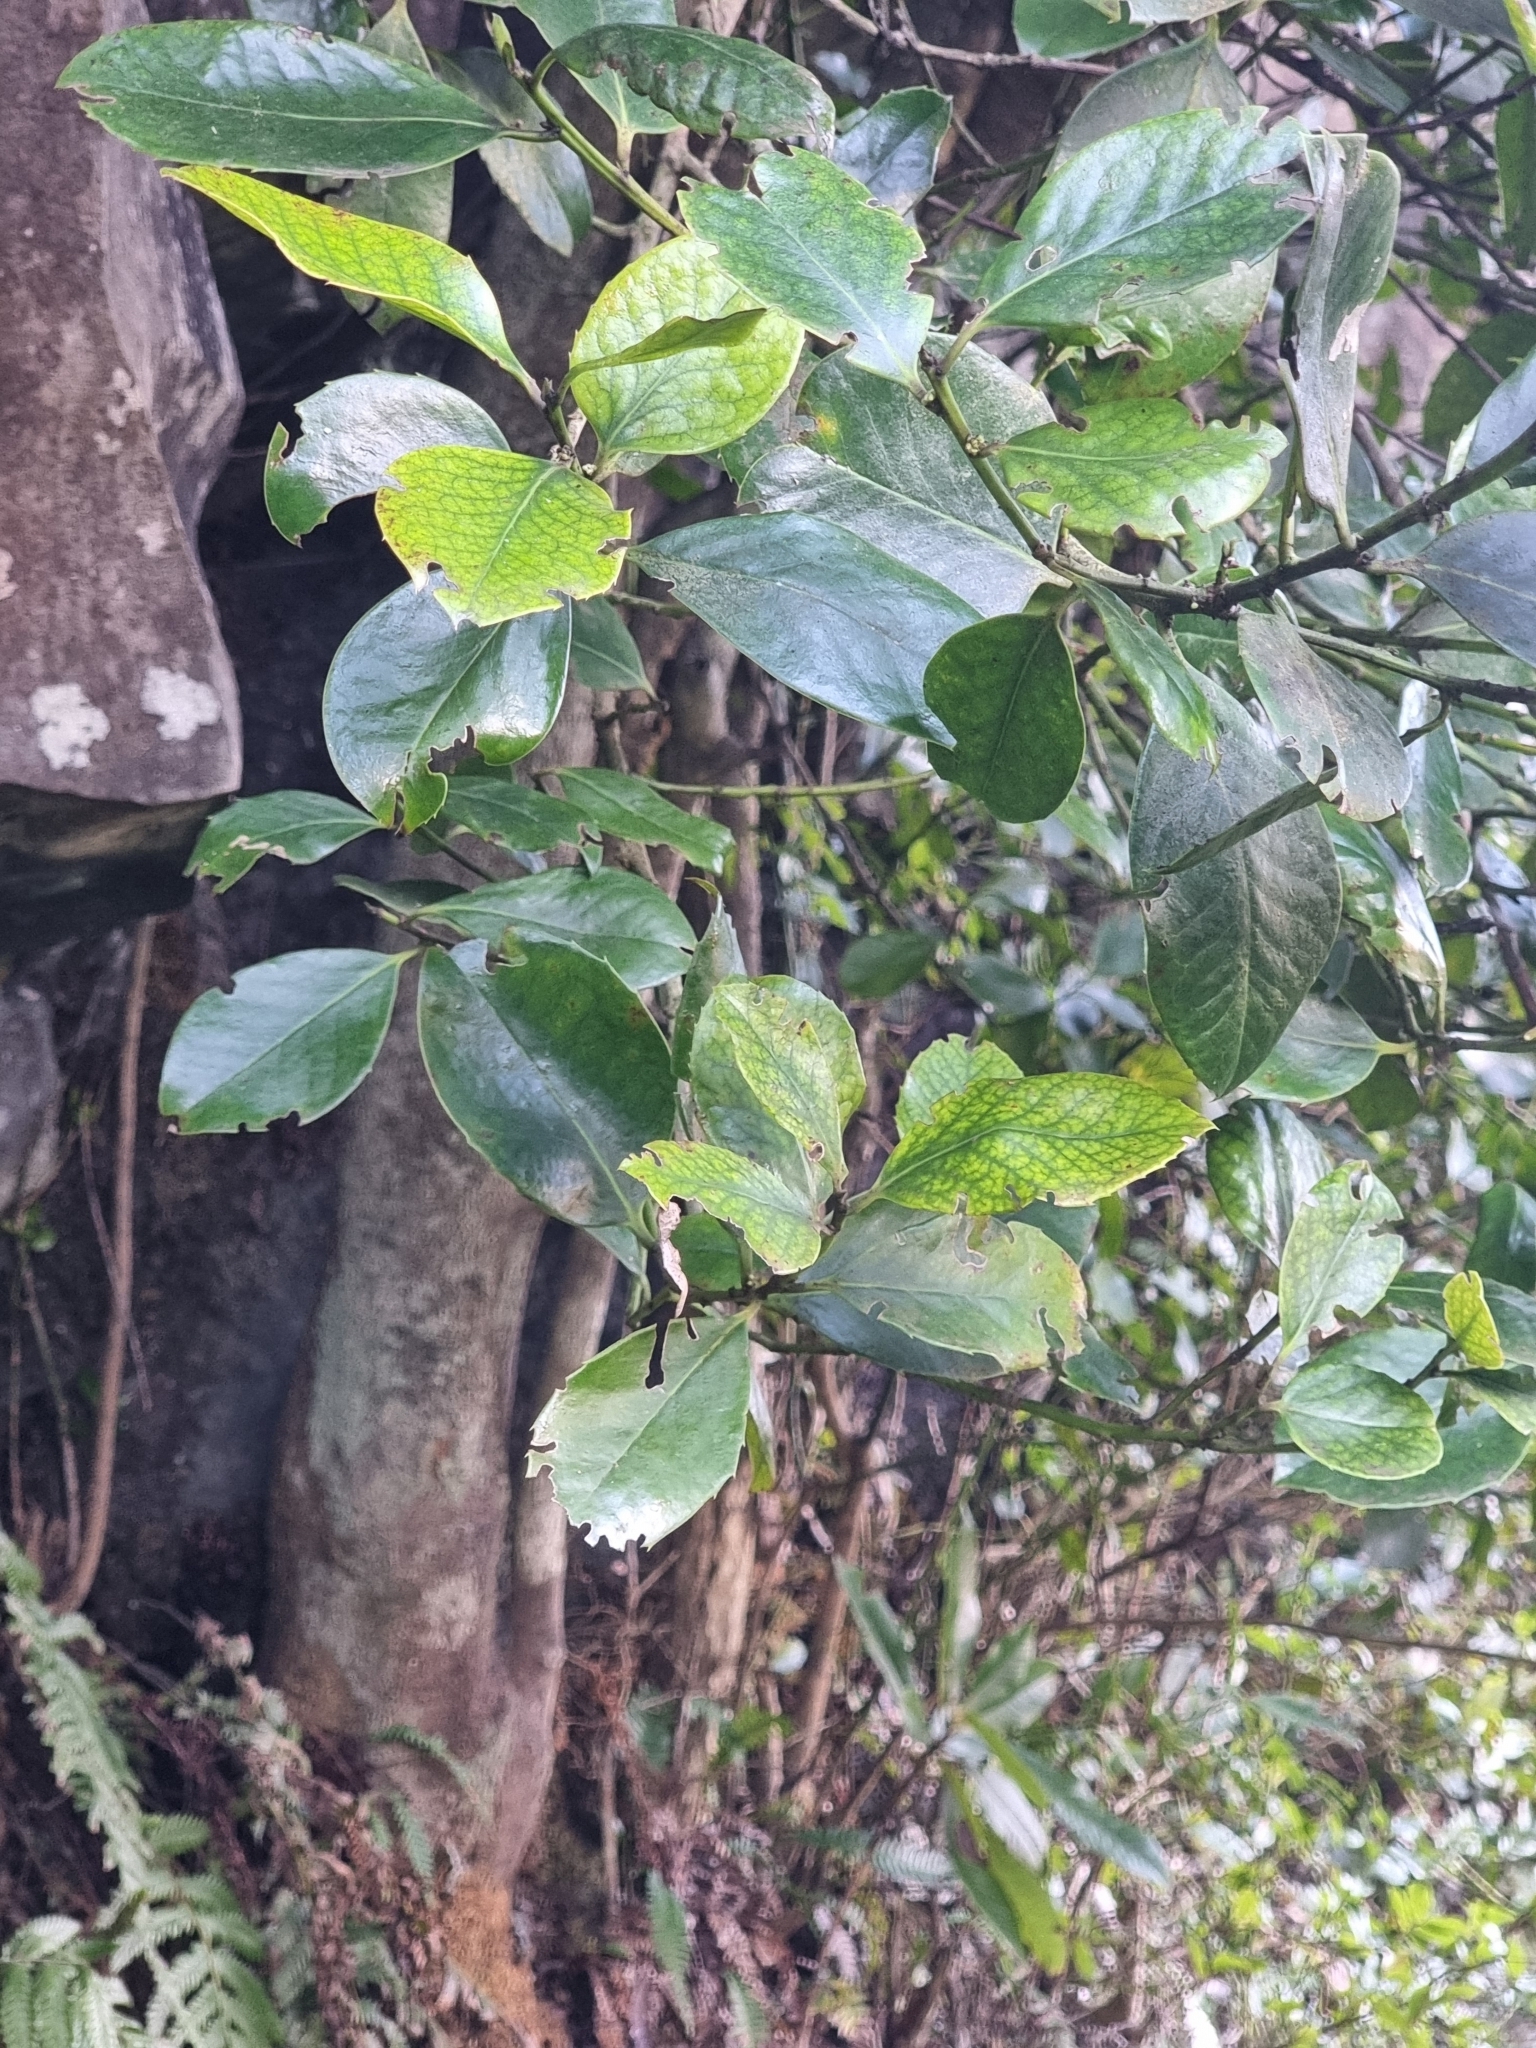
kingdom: Plantae
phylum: Tracheophyta
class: Magnoliopsida
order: Aquifoliales
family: Aquifoliaceae
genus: Ilex
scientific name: Ilex perado
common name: Madeira holly
